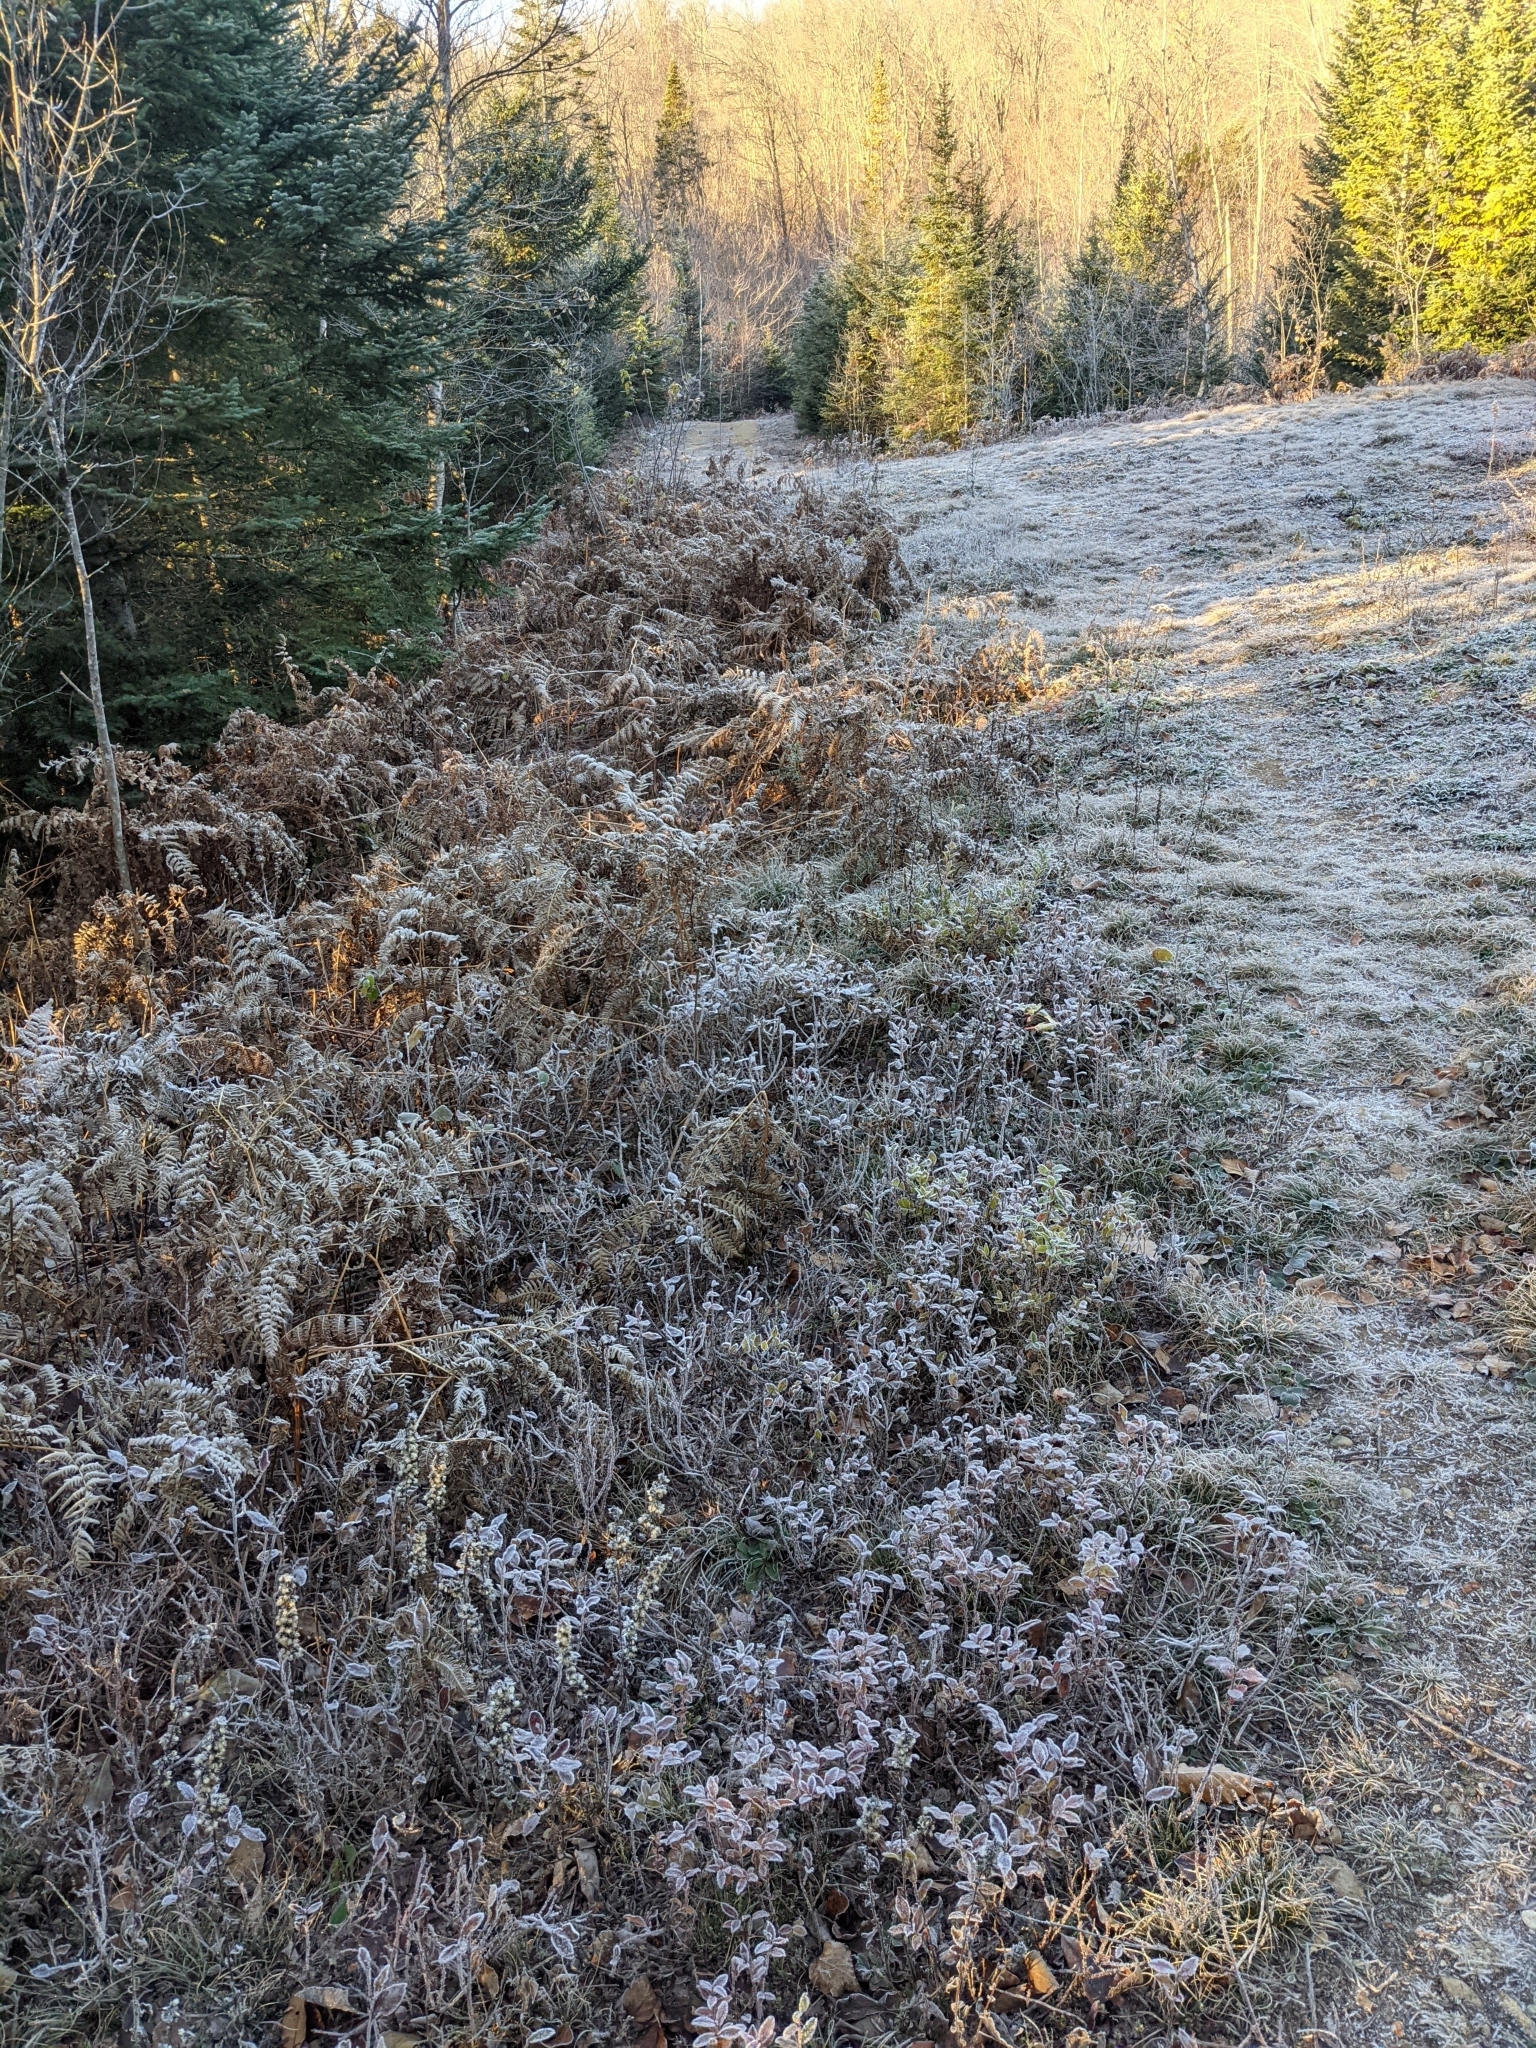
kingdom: Plantae
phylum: Tracheophyta
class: Polypodiopsida
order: Polypodiales
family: Dennstaedtiaceae
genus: Pteridium
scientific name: Pteridium aquilinum
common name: Bracken
